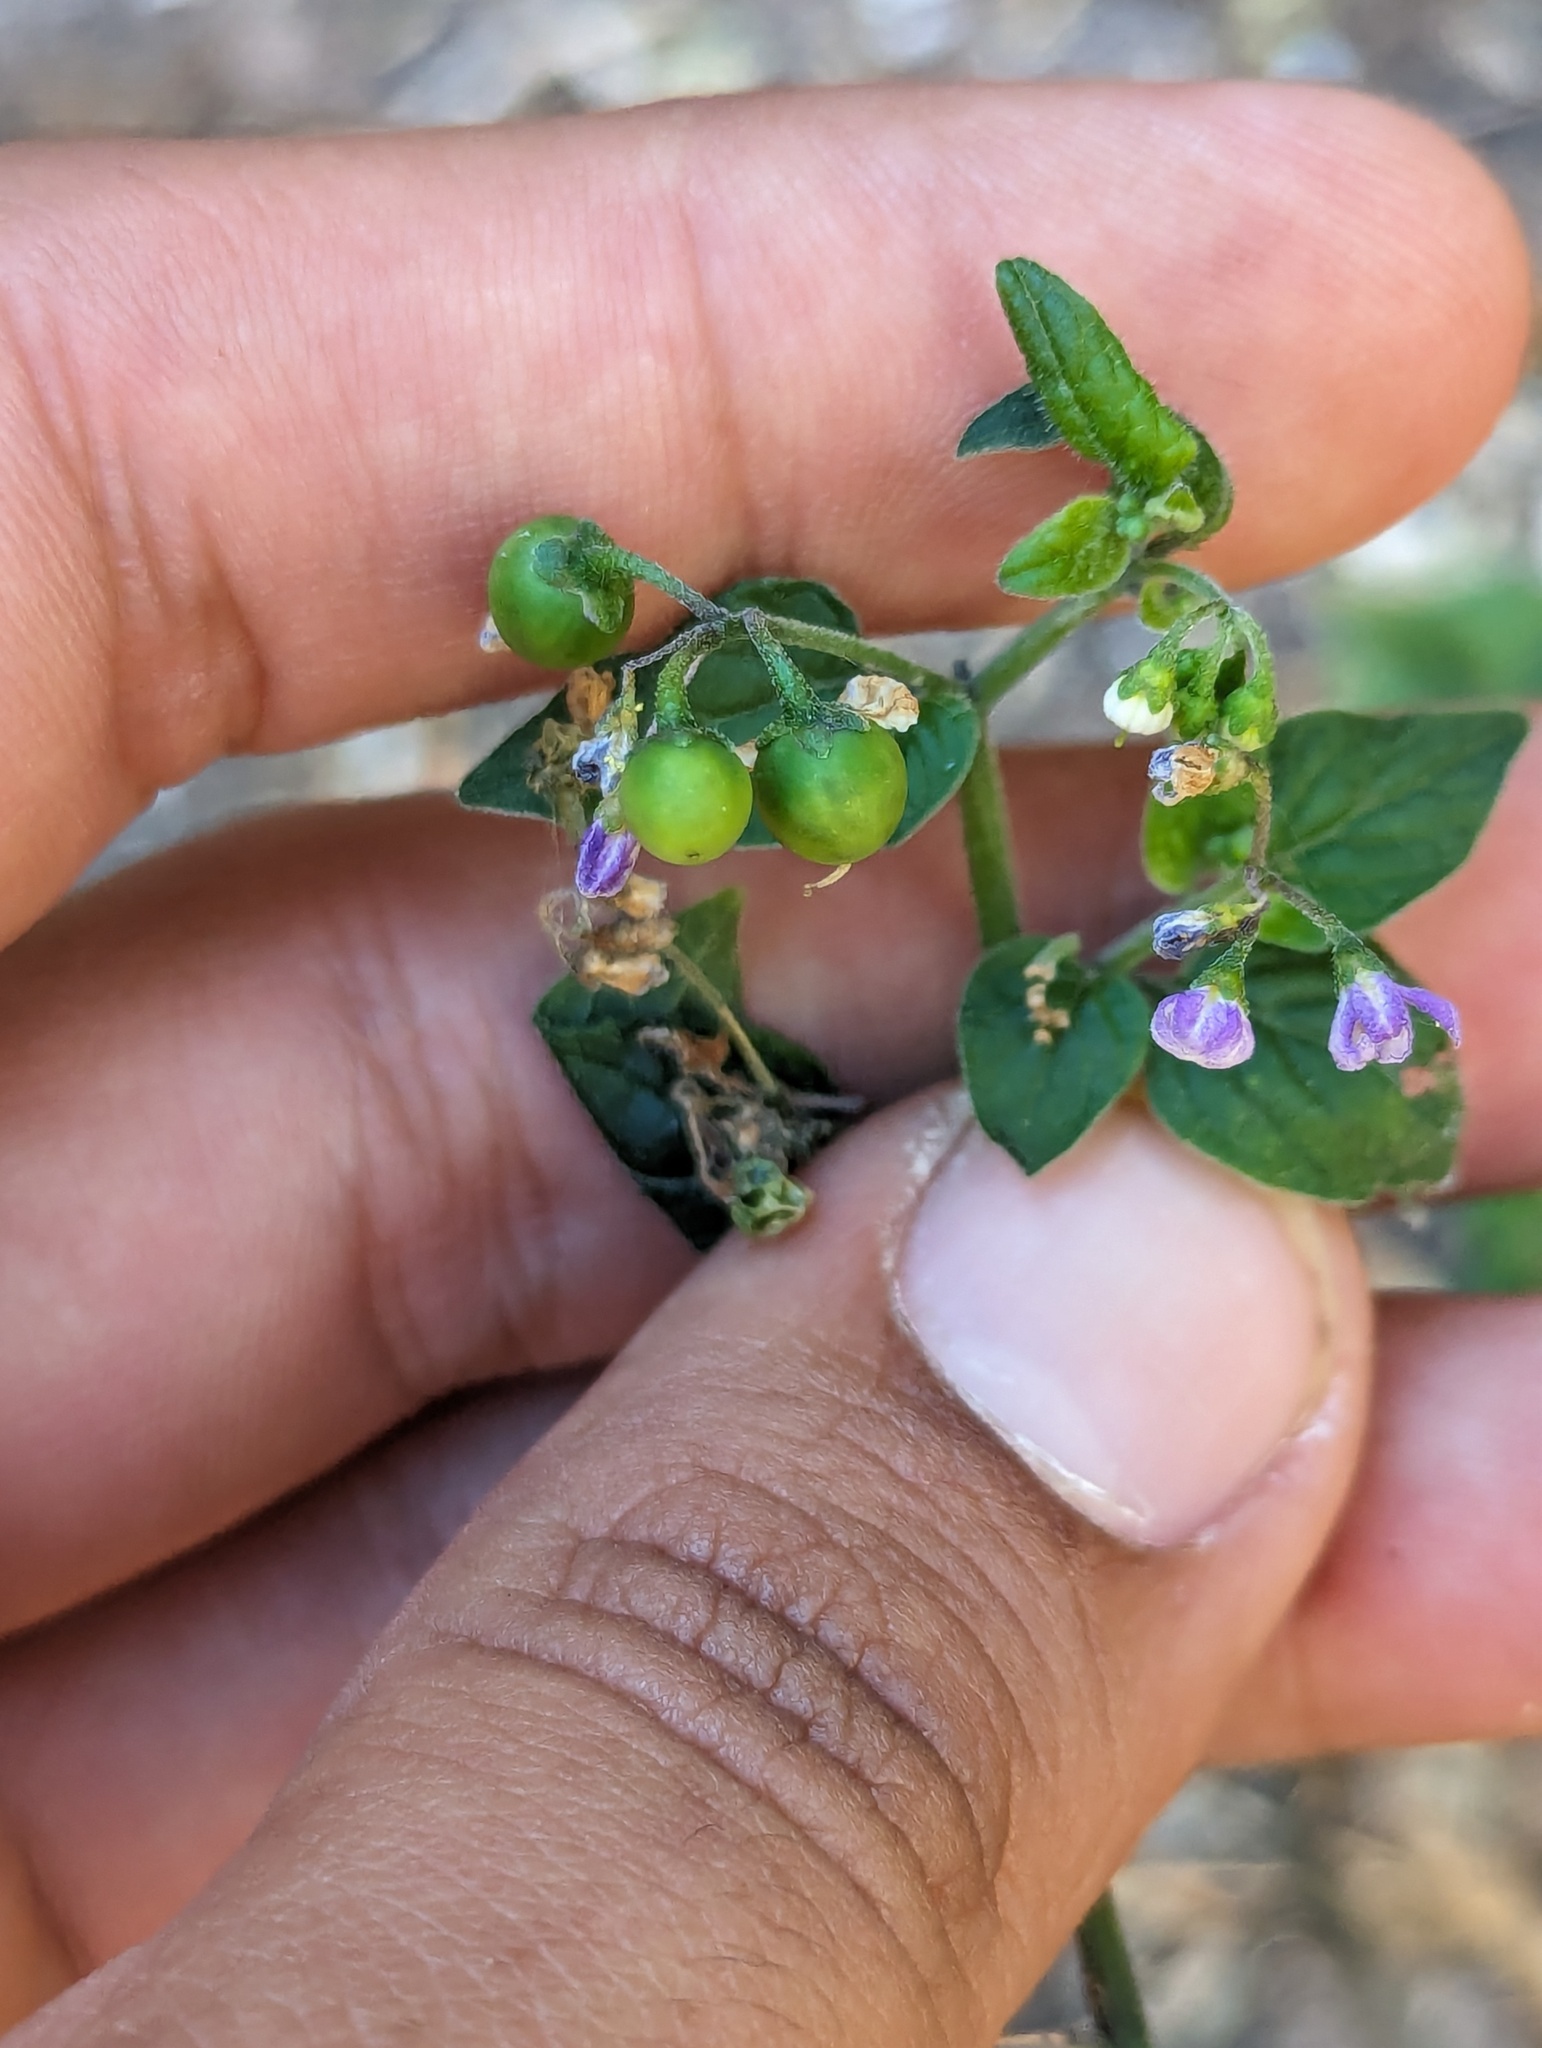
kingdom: Plantae
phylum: Tracheophyta
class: Magnoliopsida
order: Solanales
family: Solanaceae
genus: Solanum
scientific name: Solanum americanum
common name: American black nightshade
